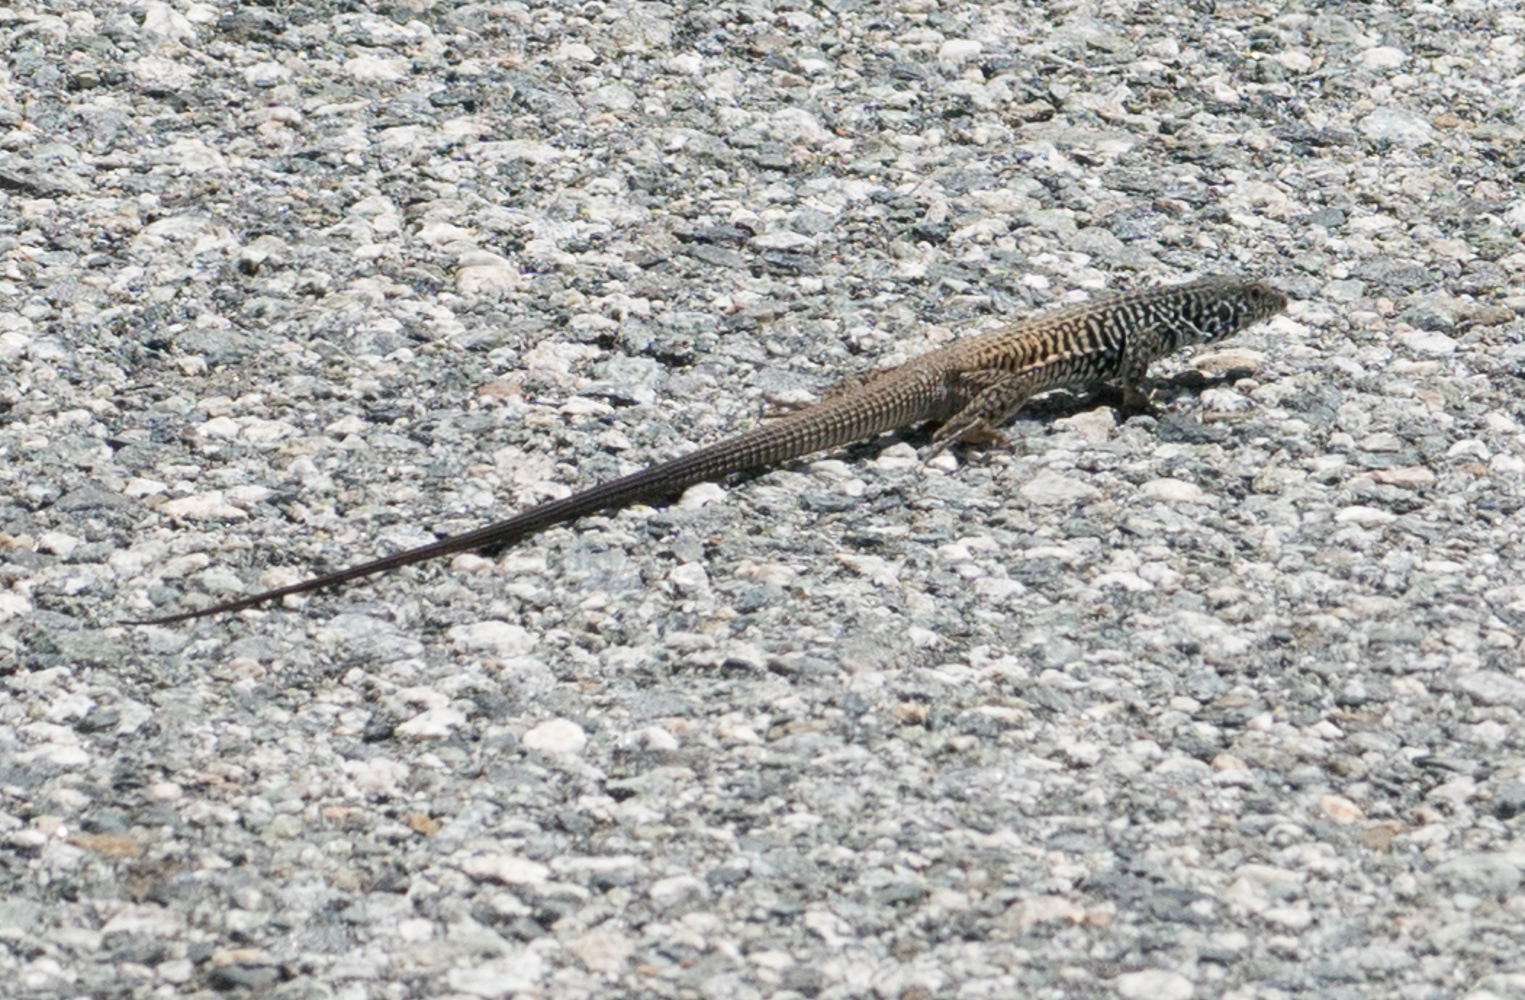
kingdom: Animalia
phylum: Chordata
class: Squamata
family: Teiidae
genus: Aspidoscelis
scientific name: Aspidoscelis tigris
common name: Tiger whiptail
